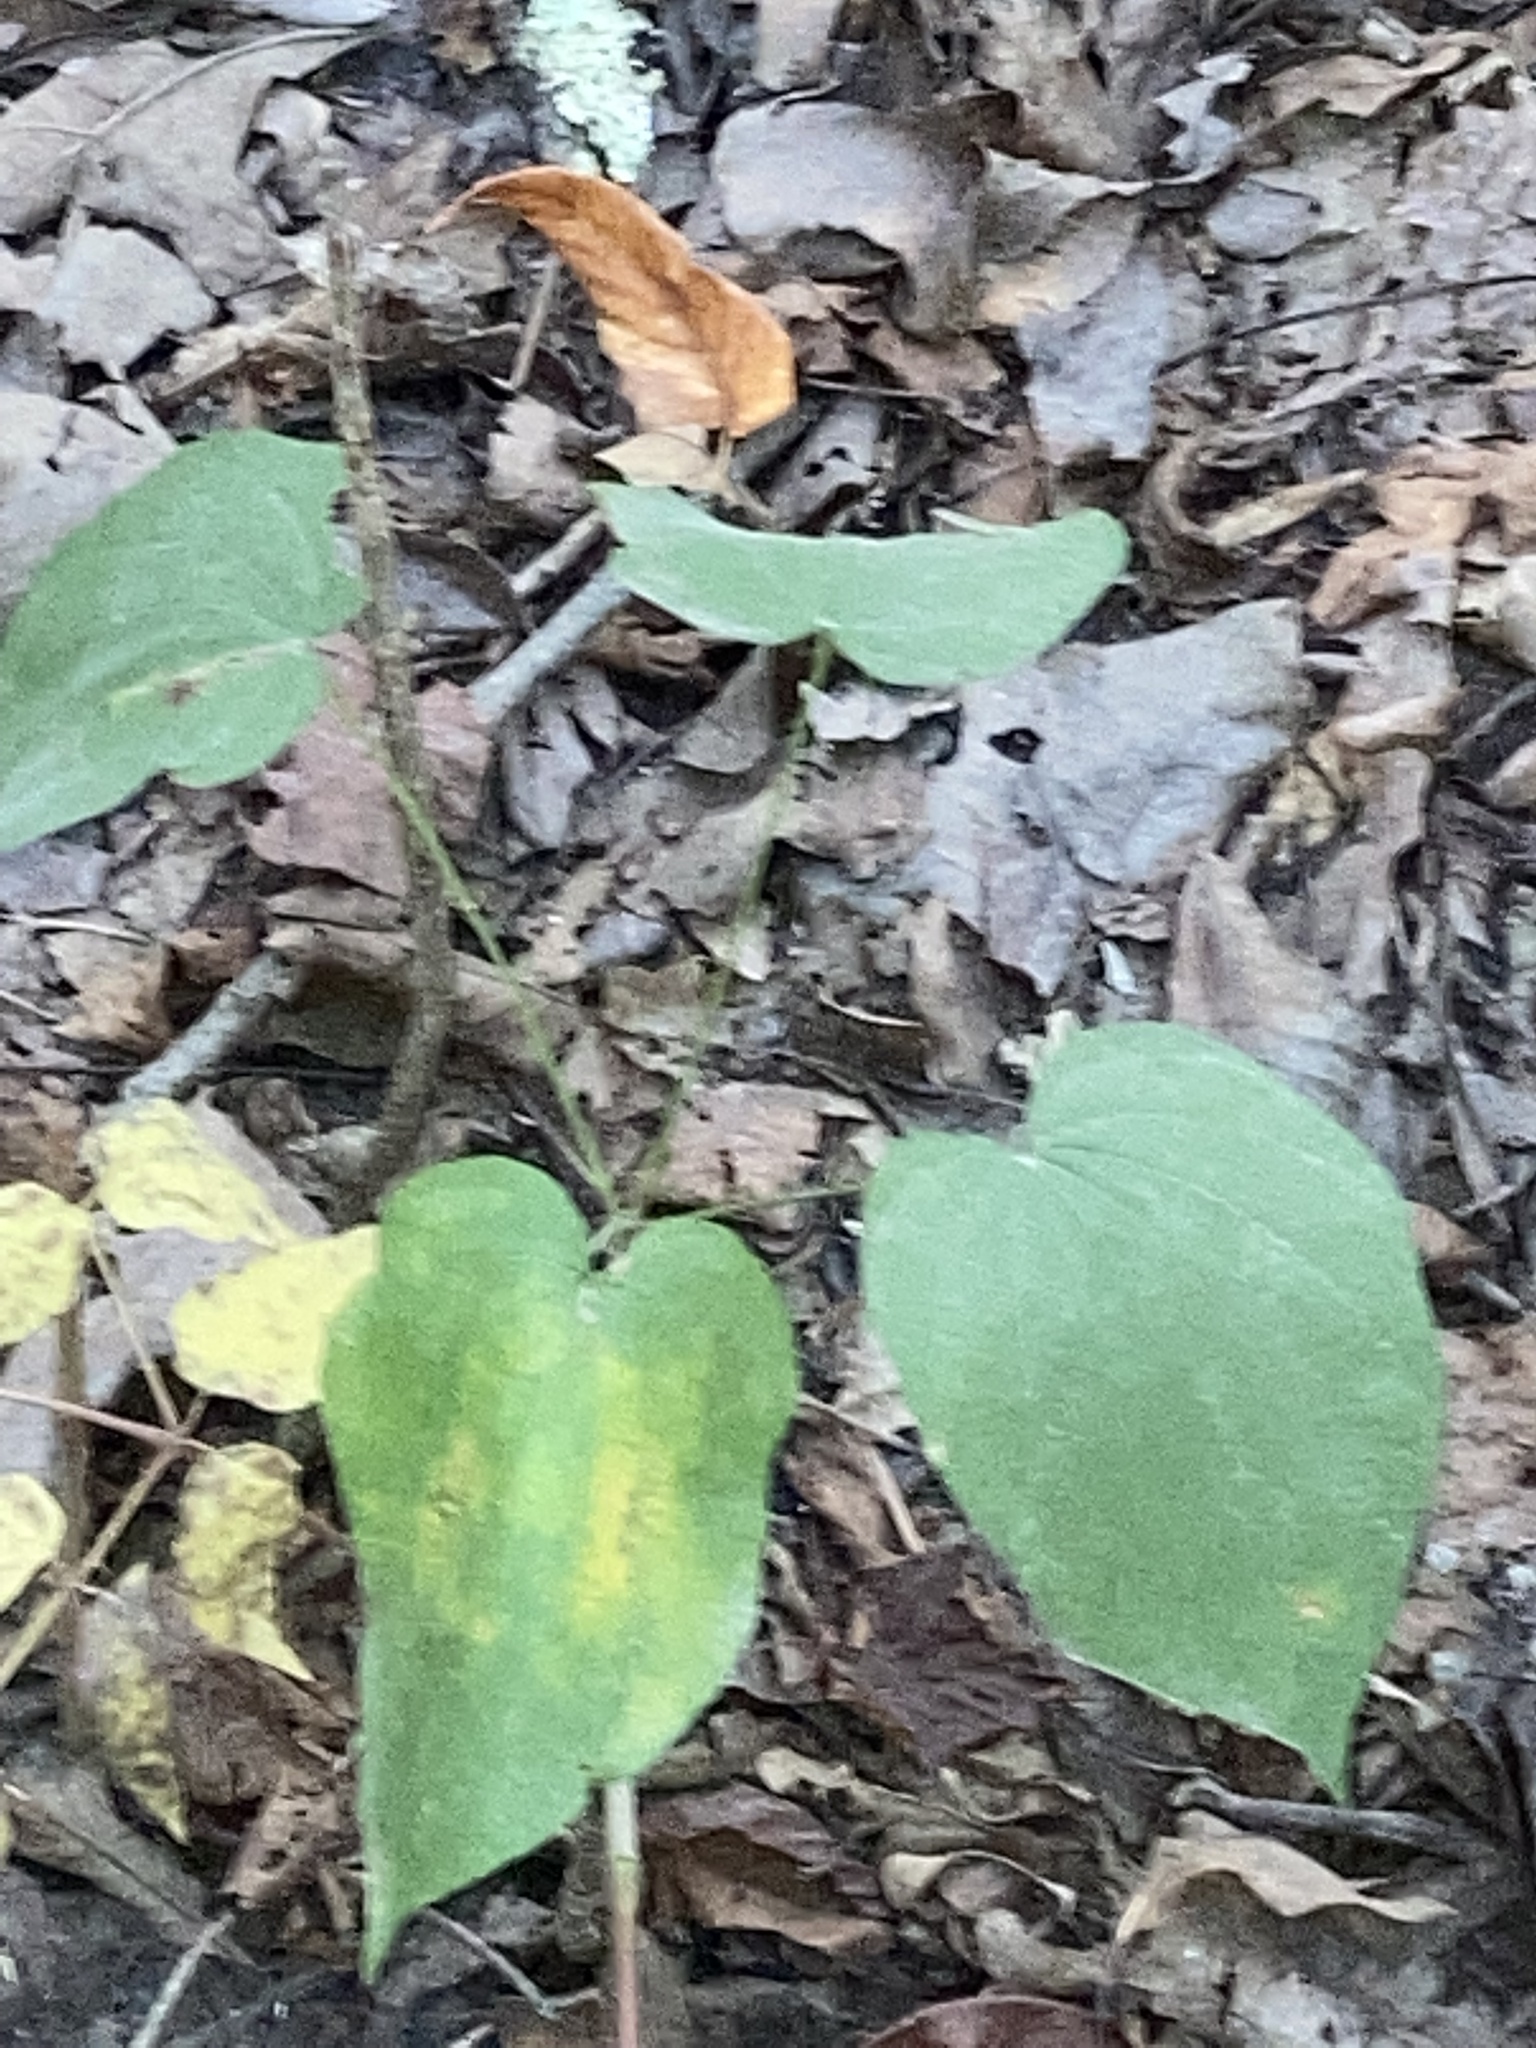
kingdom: Plantae
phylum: Tracheophyta
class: Liliopsida
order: Dioscoreales
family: Dioscoreaceae
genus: Dioscorea
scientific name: Dioscorea villosa
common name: Wild yam
